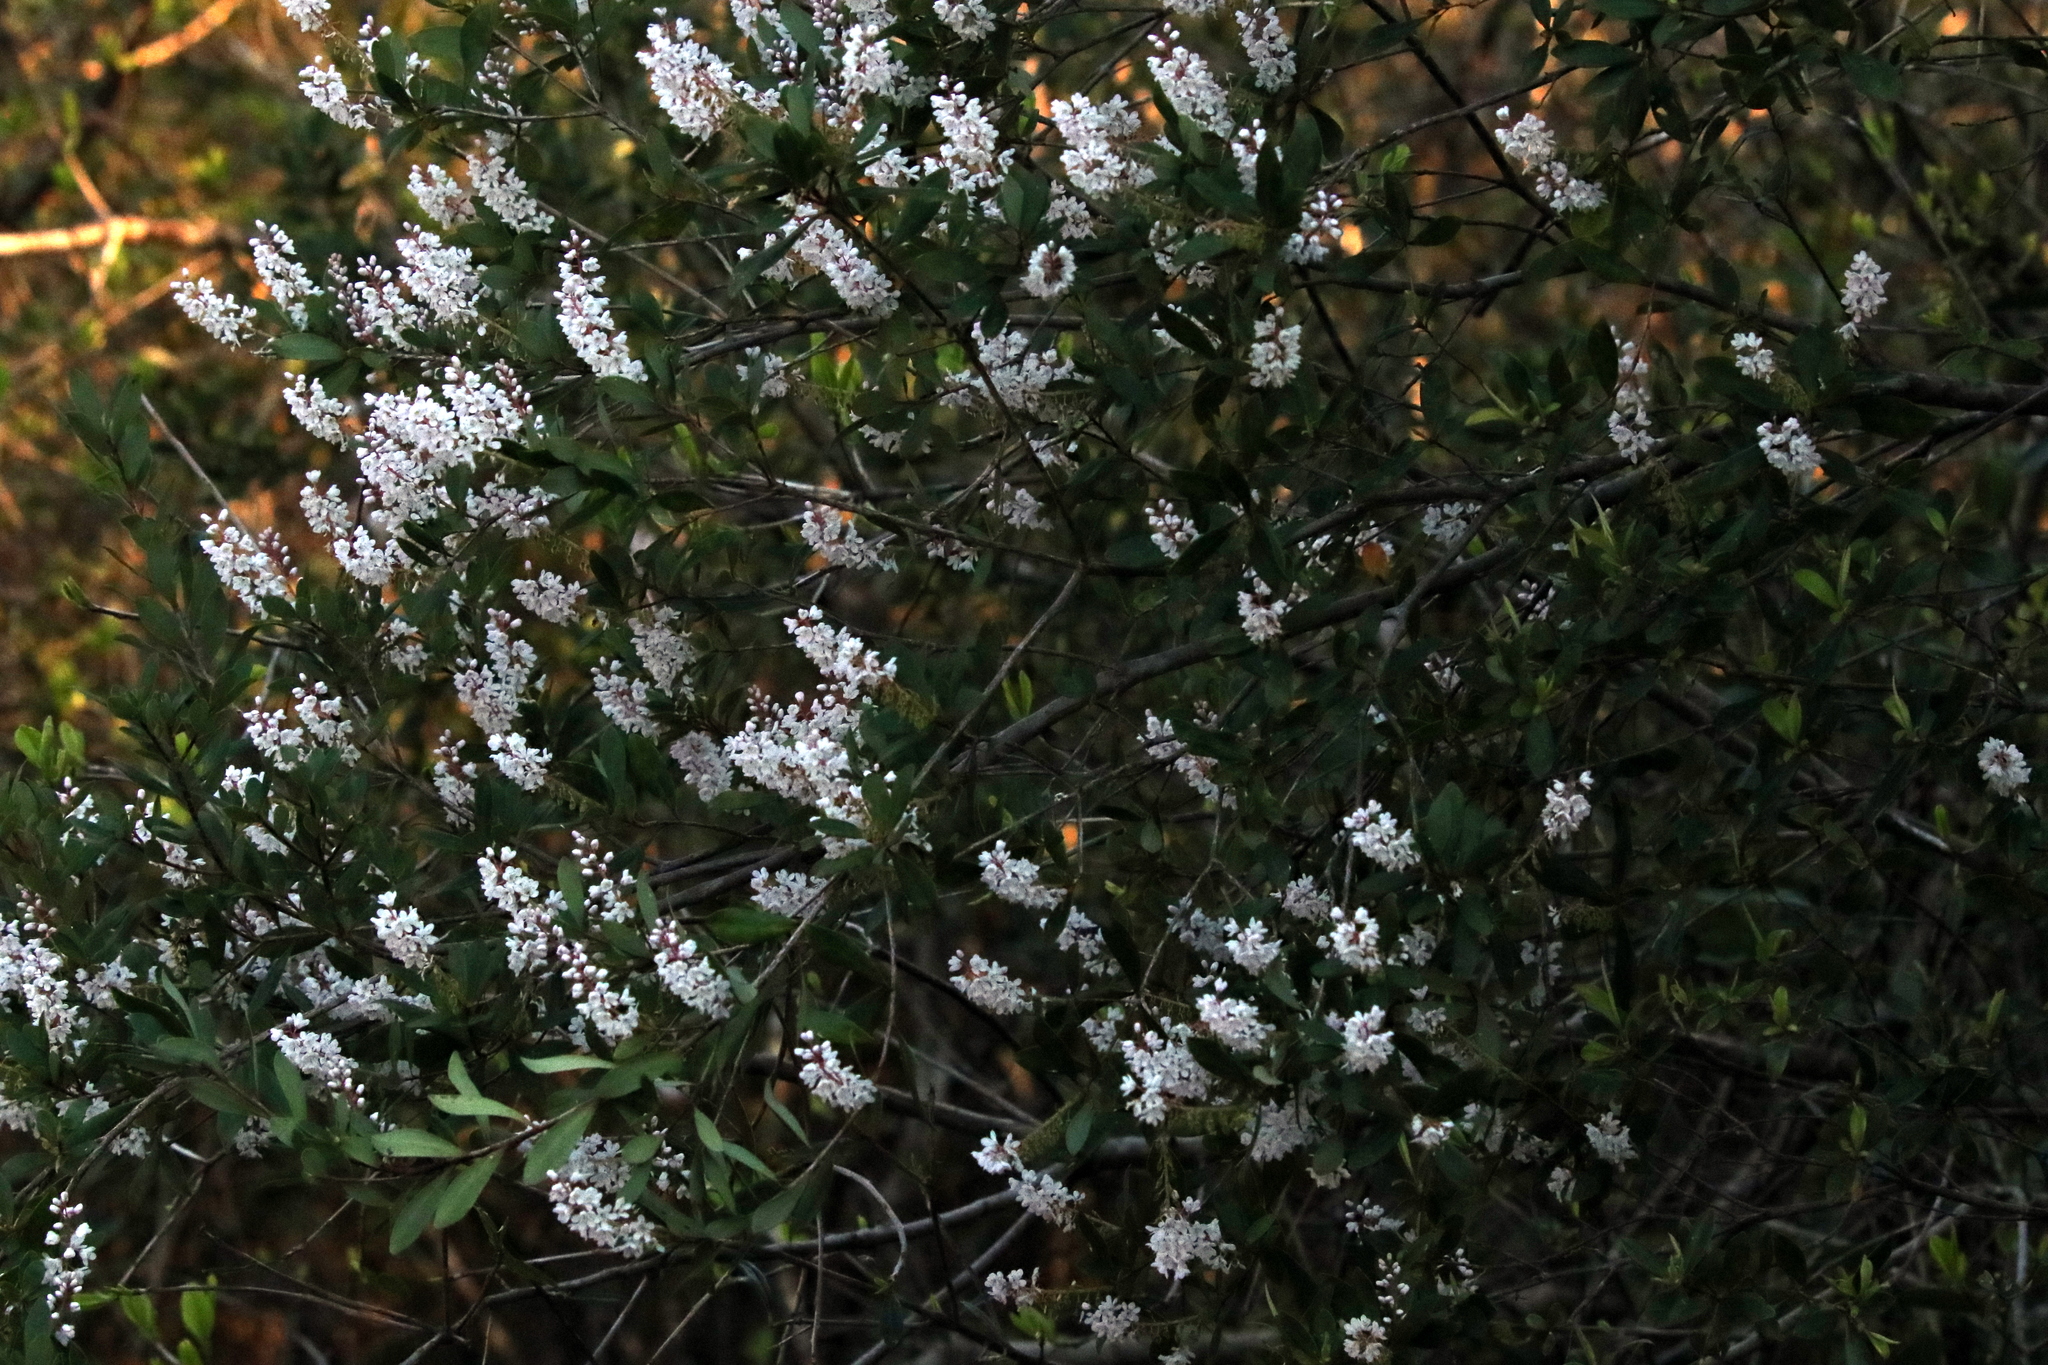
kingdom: Plantae
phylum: Tracheophyta
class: Magnoliopsida
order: Ericales
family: Cyrillaceae
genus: Cliftonia
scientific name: Cliftonia monophylla
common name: Titi
